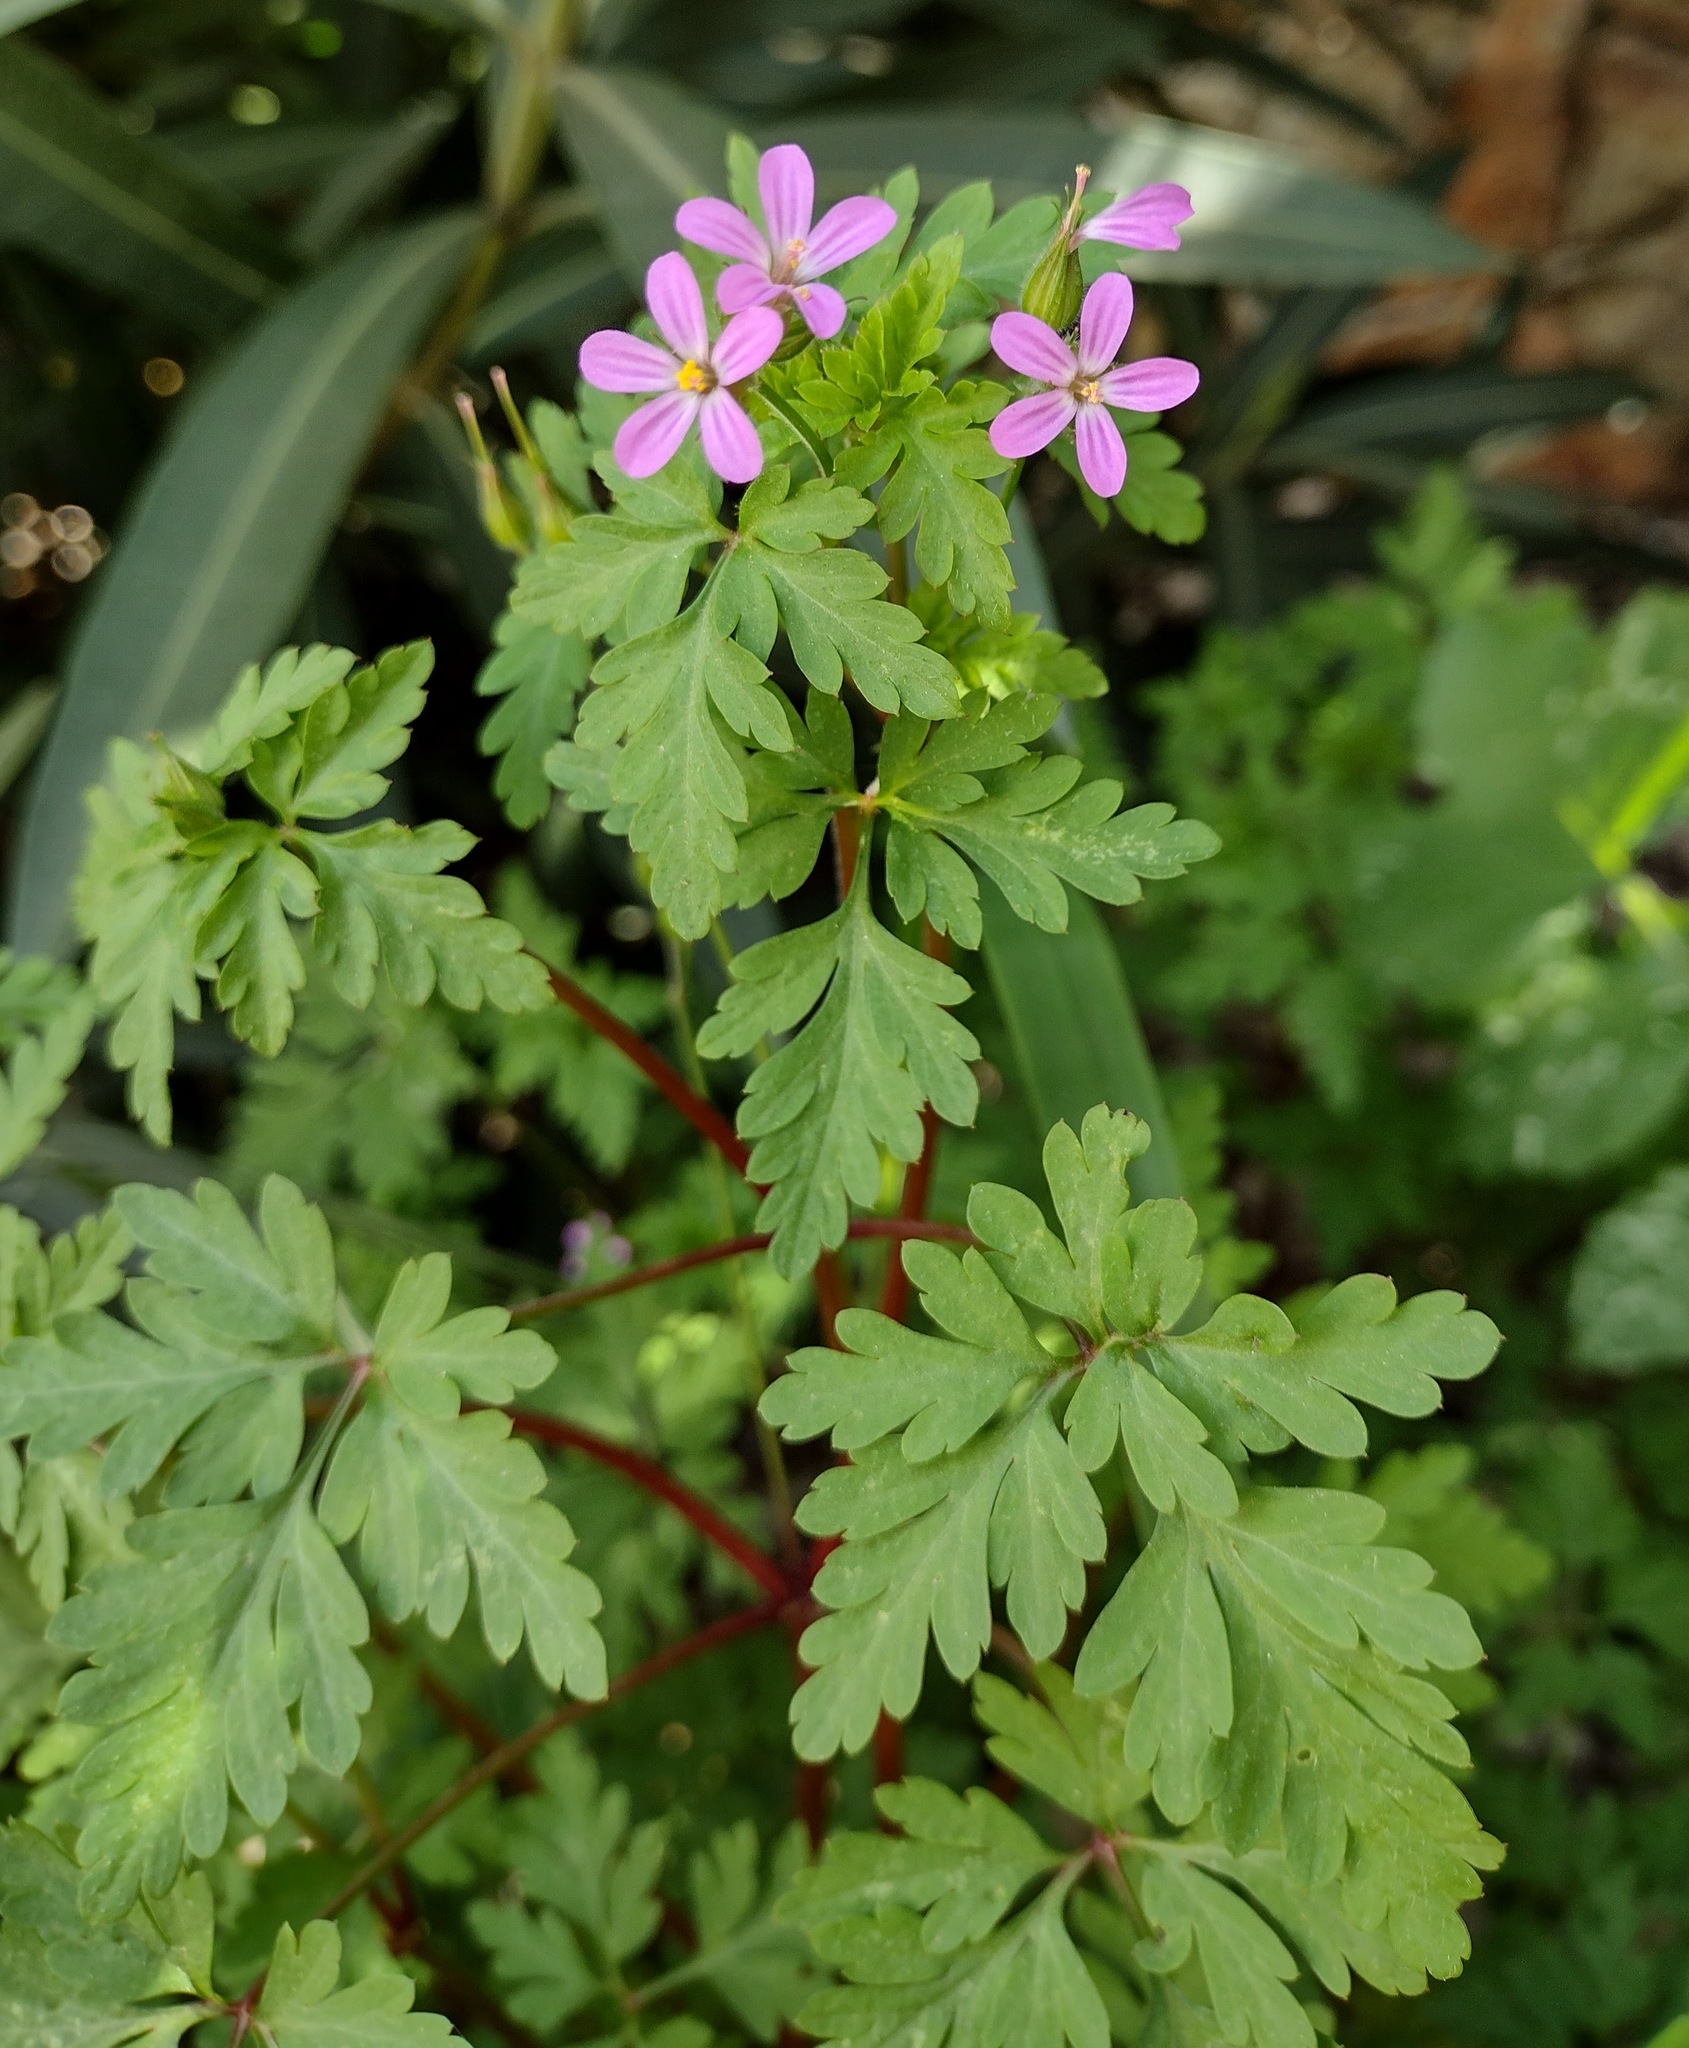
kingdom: Plantae
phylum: Tracheophyta
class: Magnoliopsida
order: Geraniales
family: Geraniaceae
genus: Geranium
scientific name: Geranium purpureum
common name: Little-robin
